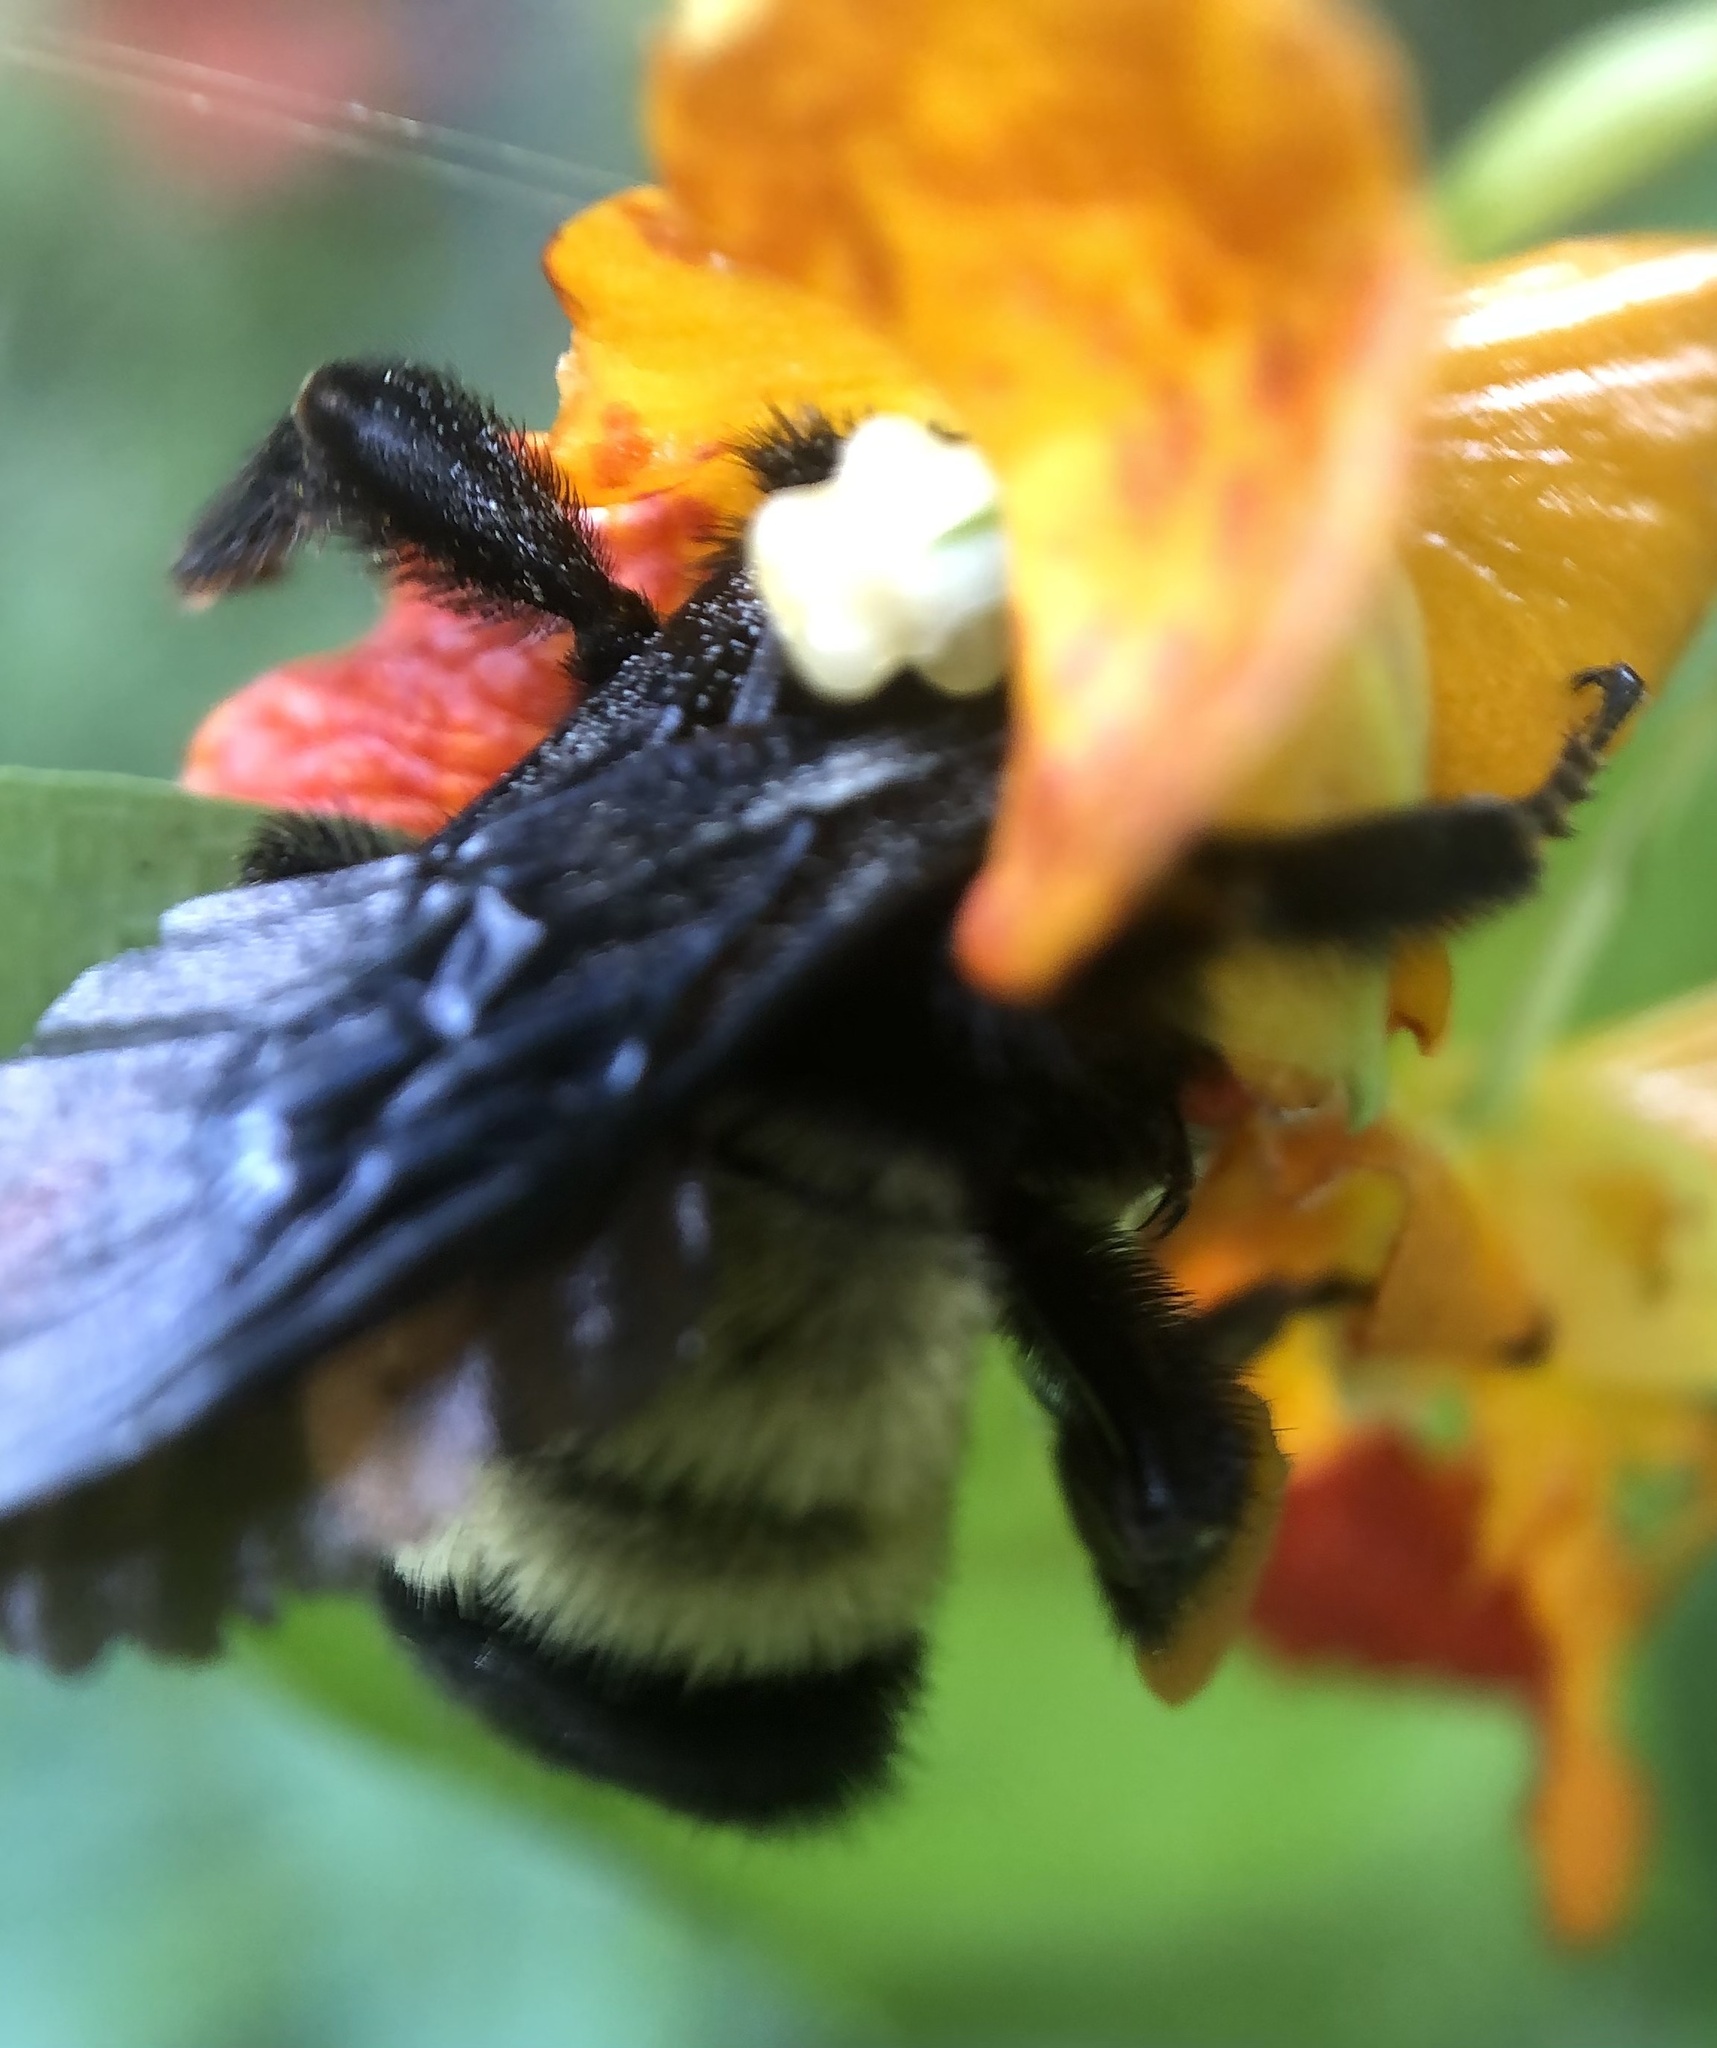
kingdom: Animalia
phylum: Arthropoda
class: Insecta
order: Hymenoptera
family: Apidae
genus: Bombus
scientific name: Bombus pensylvanicus
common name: Bumble bee
